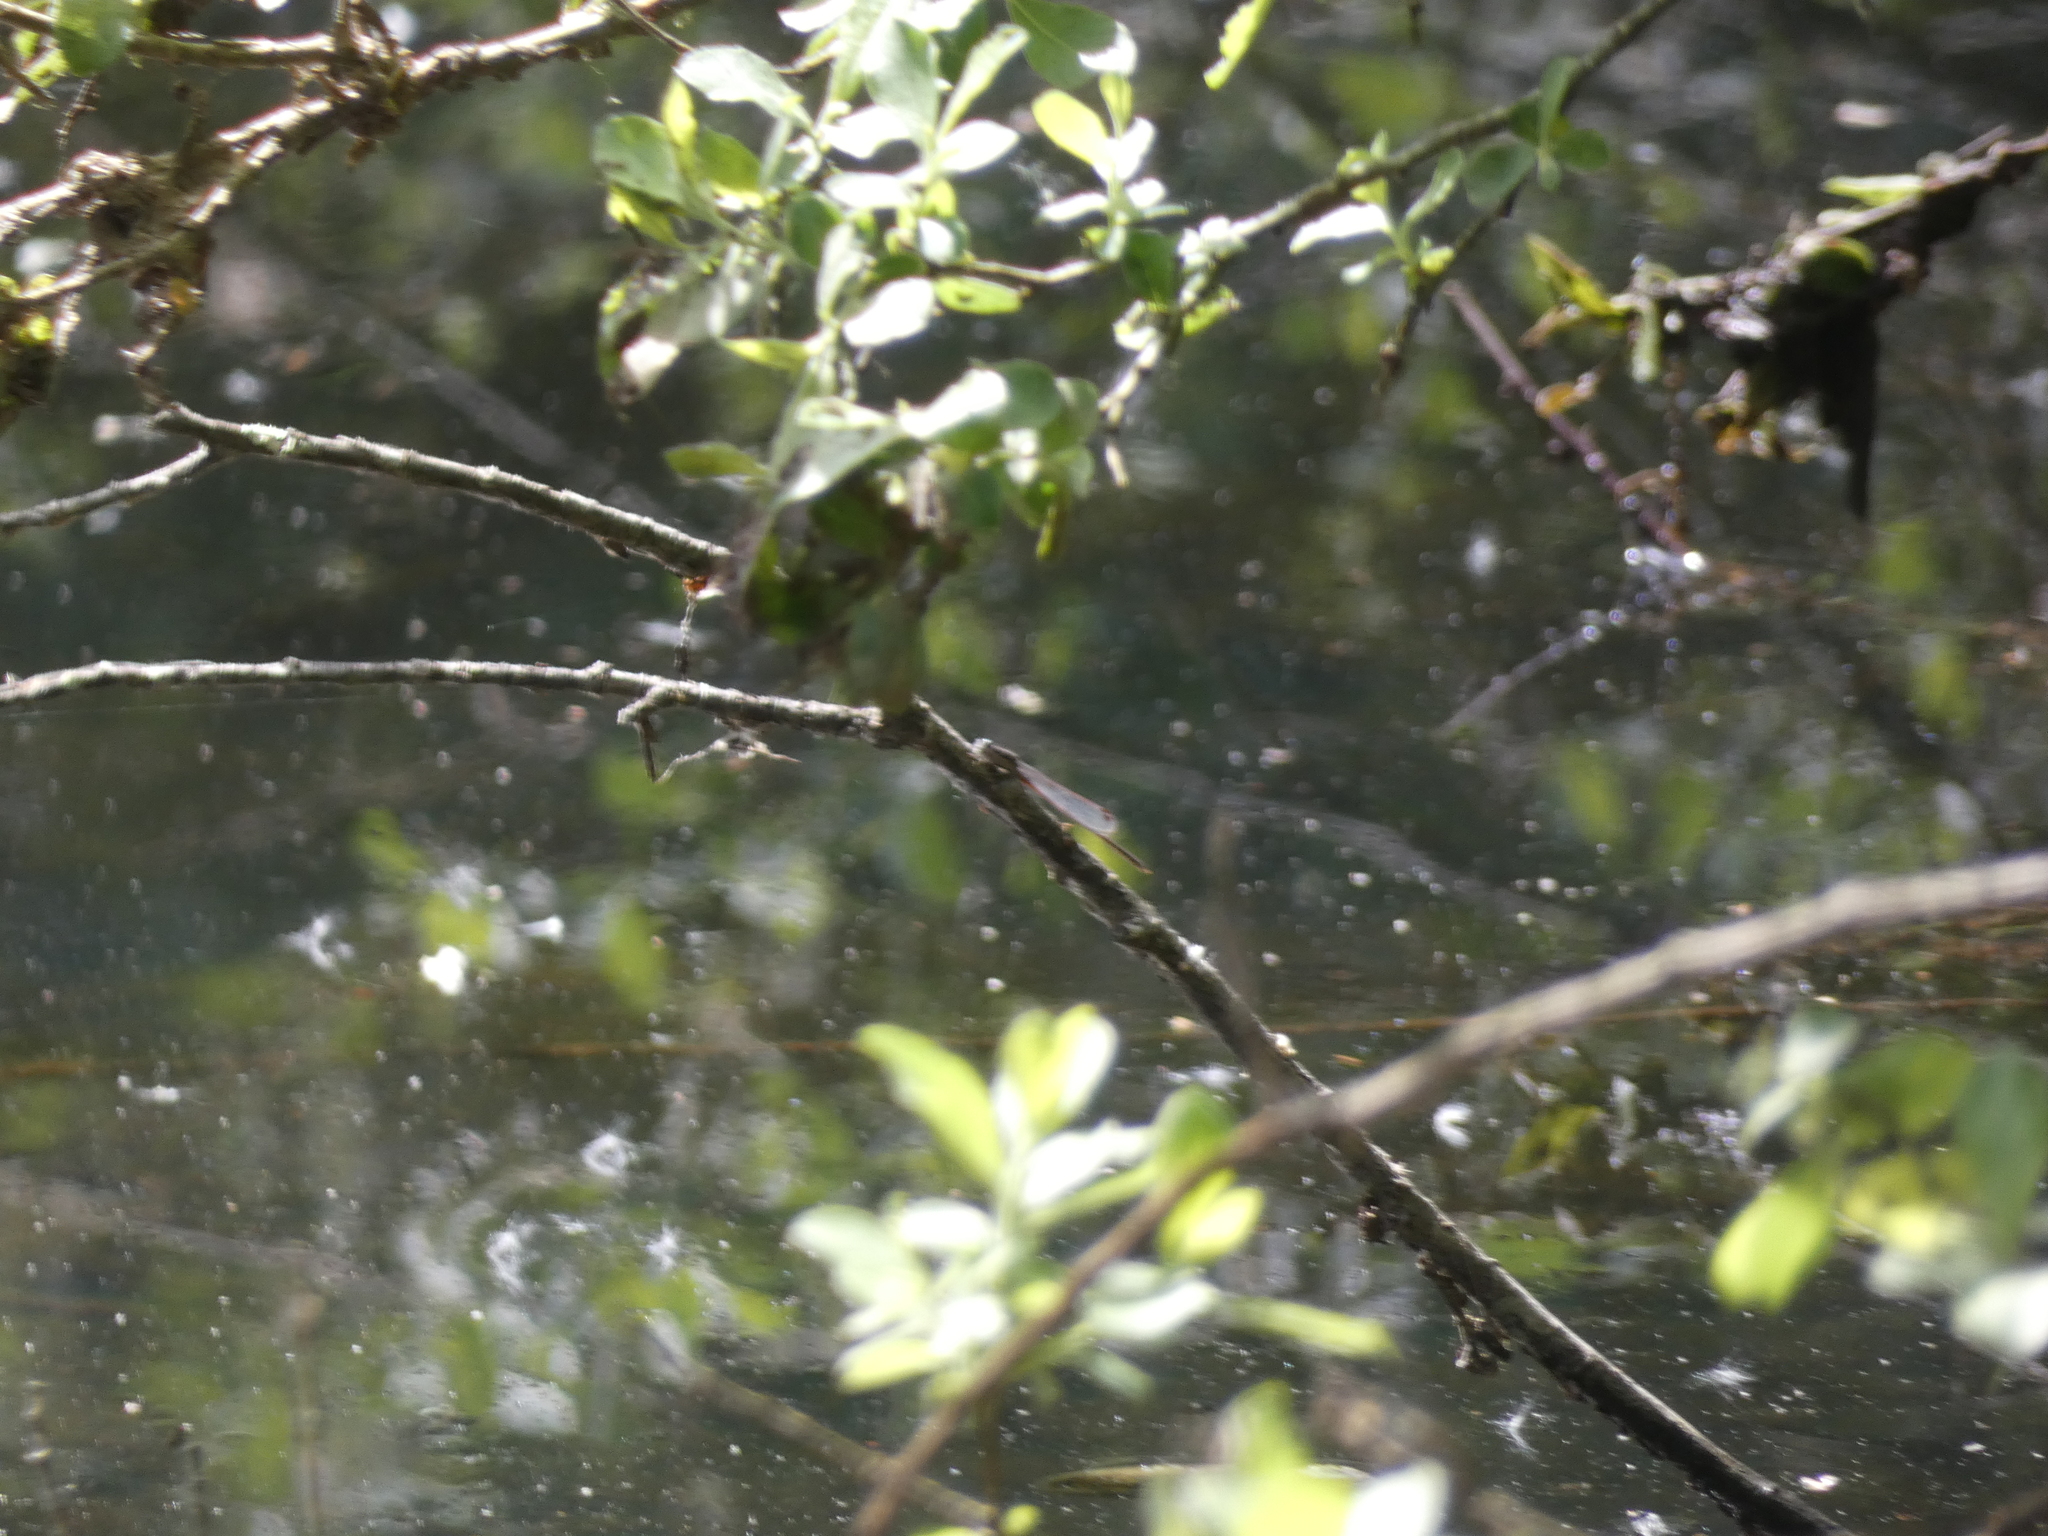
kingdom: Animalia
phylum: Arthropoda
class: Insecta
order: Odonata
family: Lestidae
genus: Sympecma
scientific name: Sympecma fusca
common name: Common winter damsel
